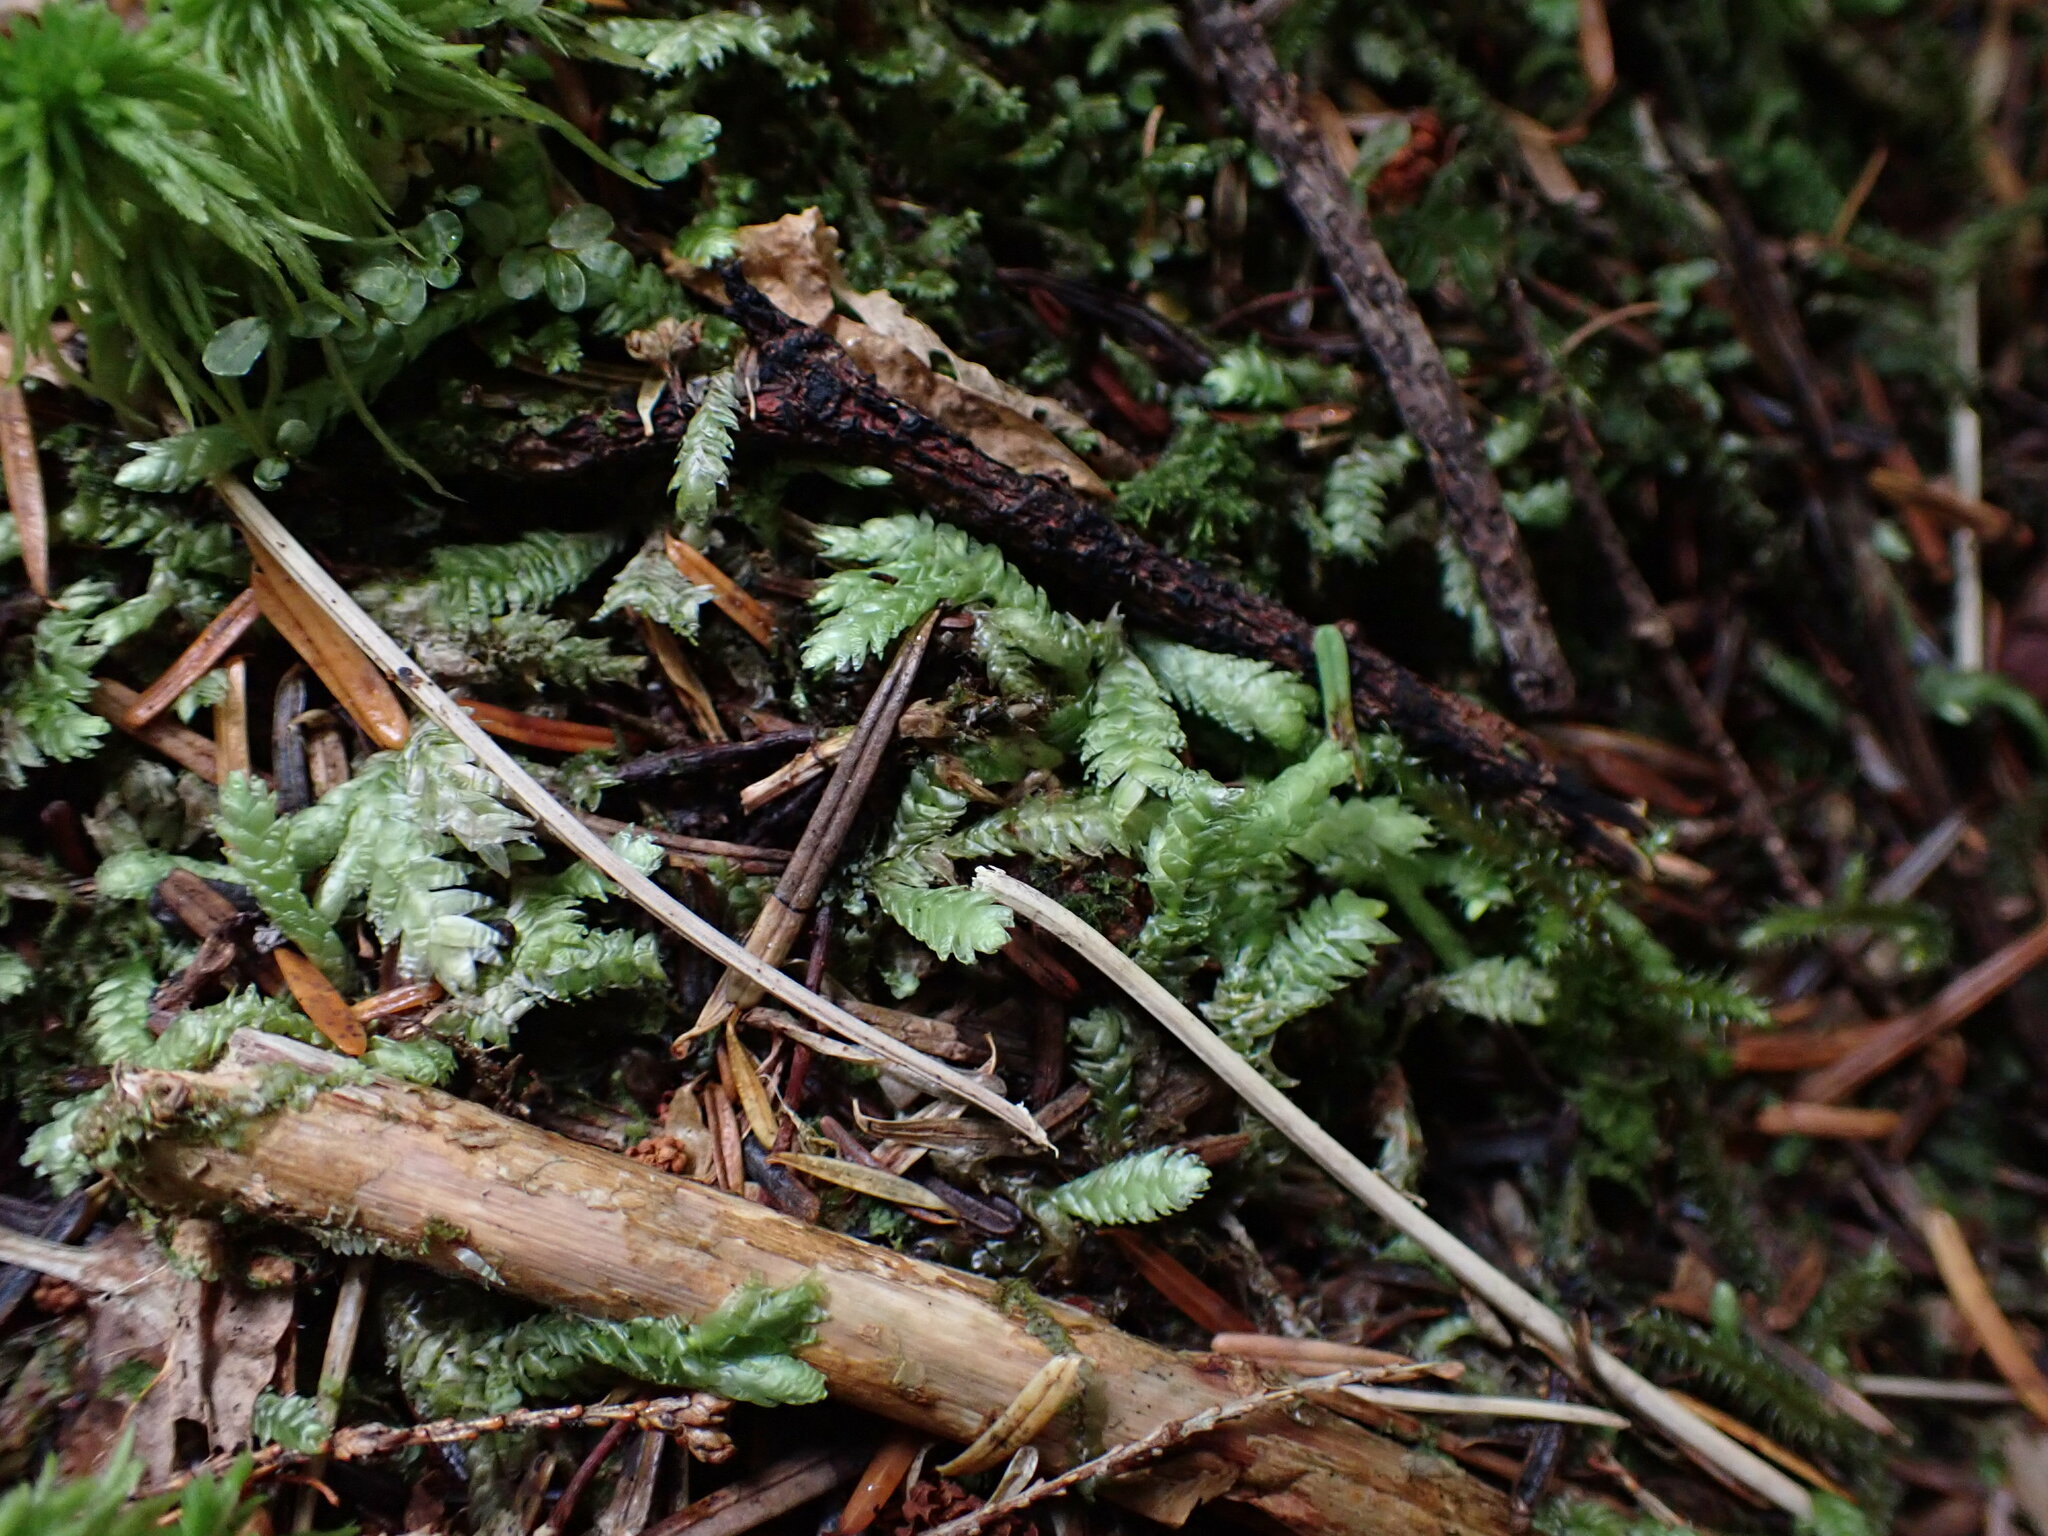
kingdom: Plantae
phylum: Bryophyta
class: Bryopsida
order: Hypnales
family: Plagiotheciaceae
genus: Plagiothecium
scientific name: Plagiothecium undulatum
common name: Waved silk-moss
